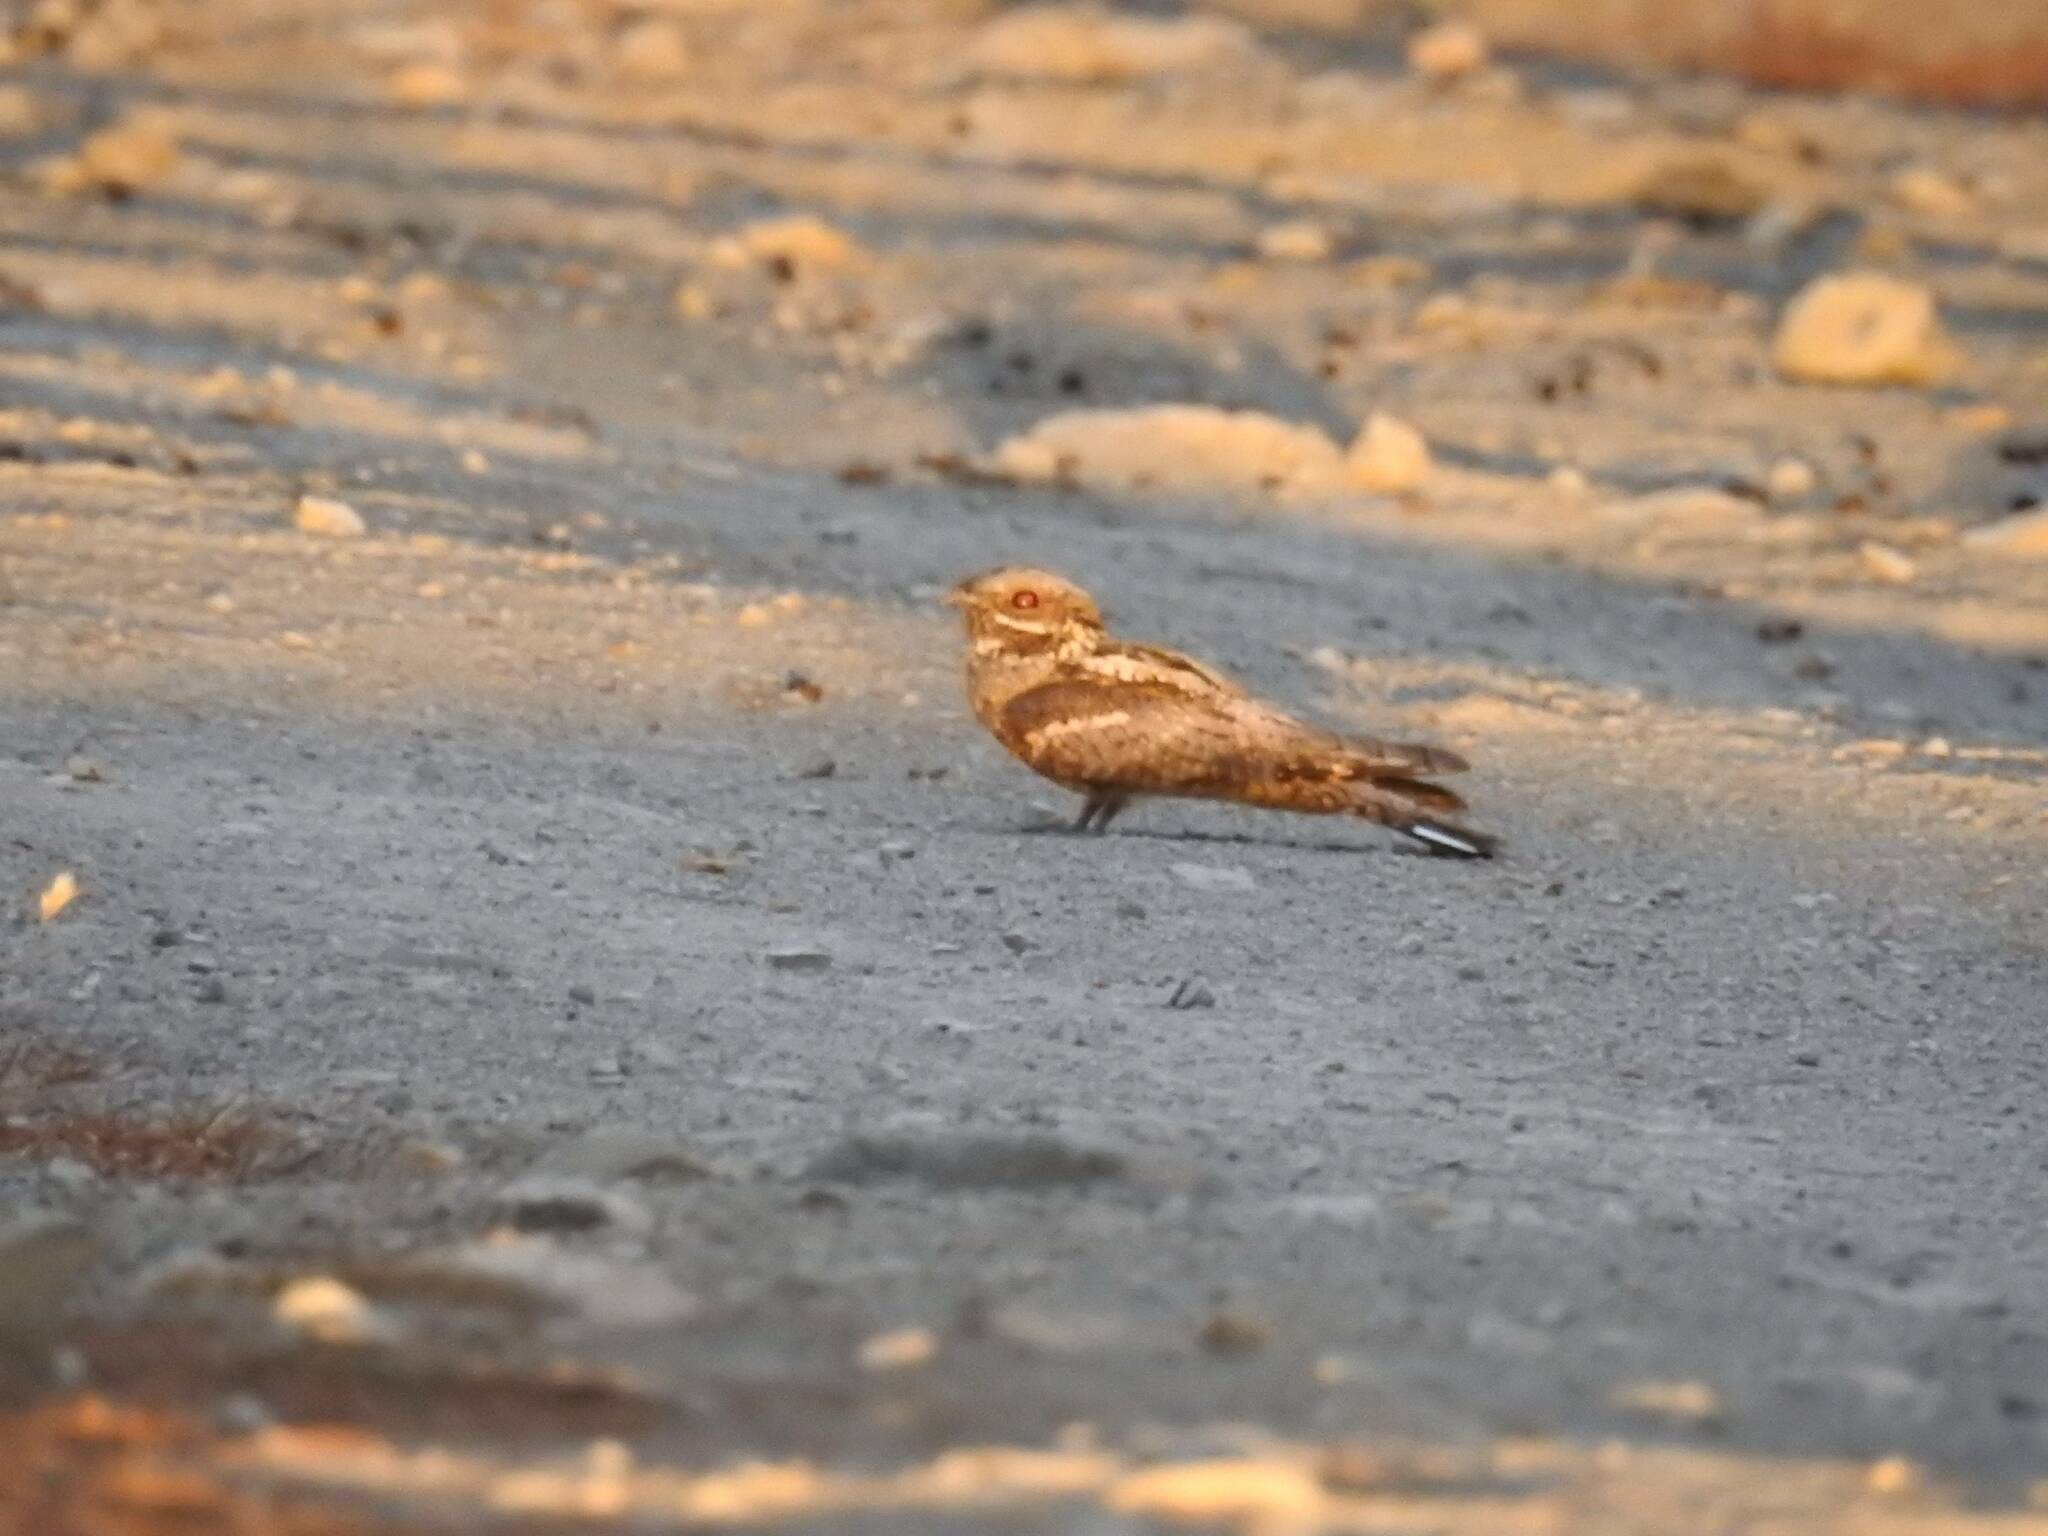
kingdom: Animalia
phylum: Chordata
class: Aves
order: Caprimulgiformes
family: Caprimulgidae
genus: Caprimulgus
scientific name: Caprimulgus europaeus
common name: European nightjar
